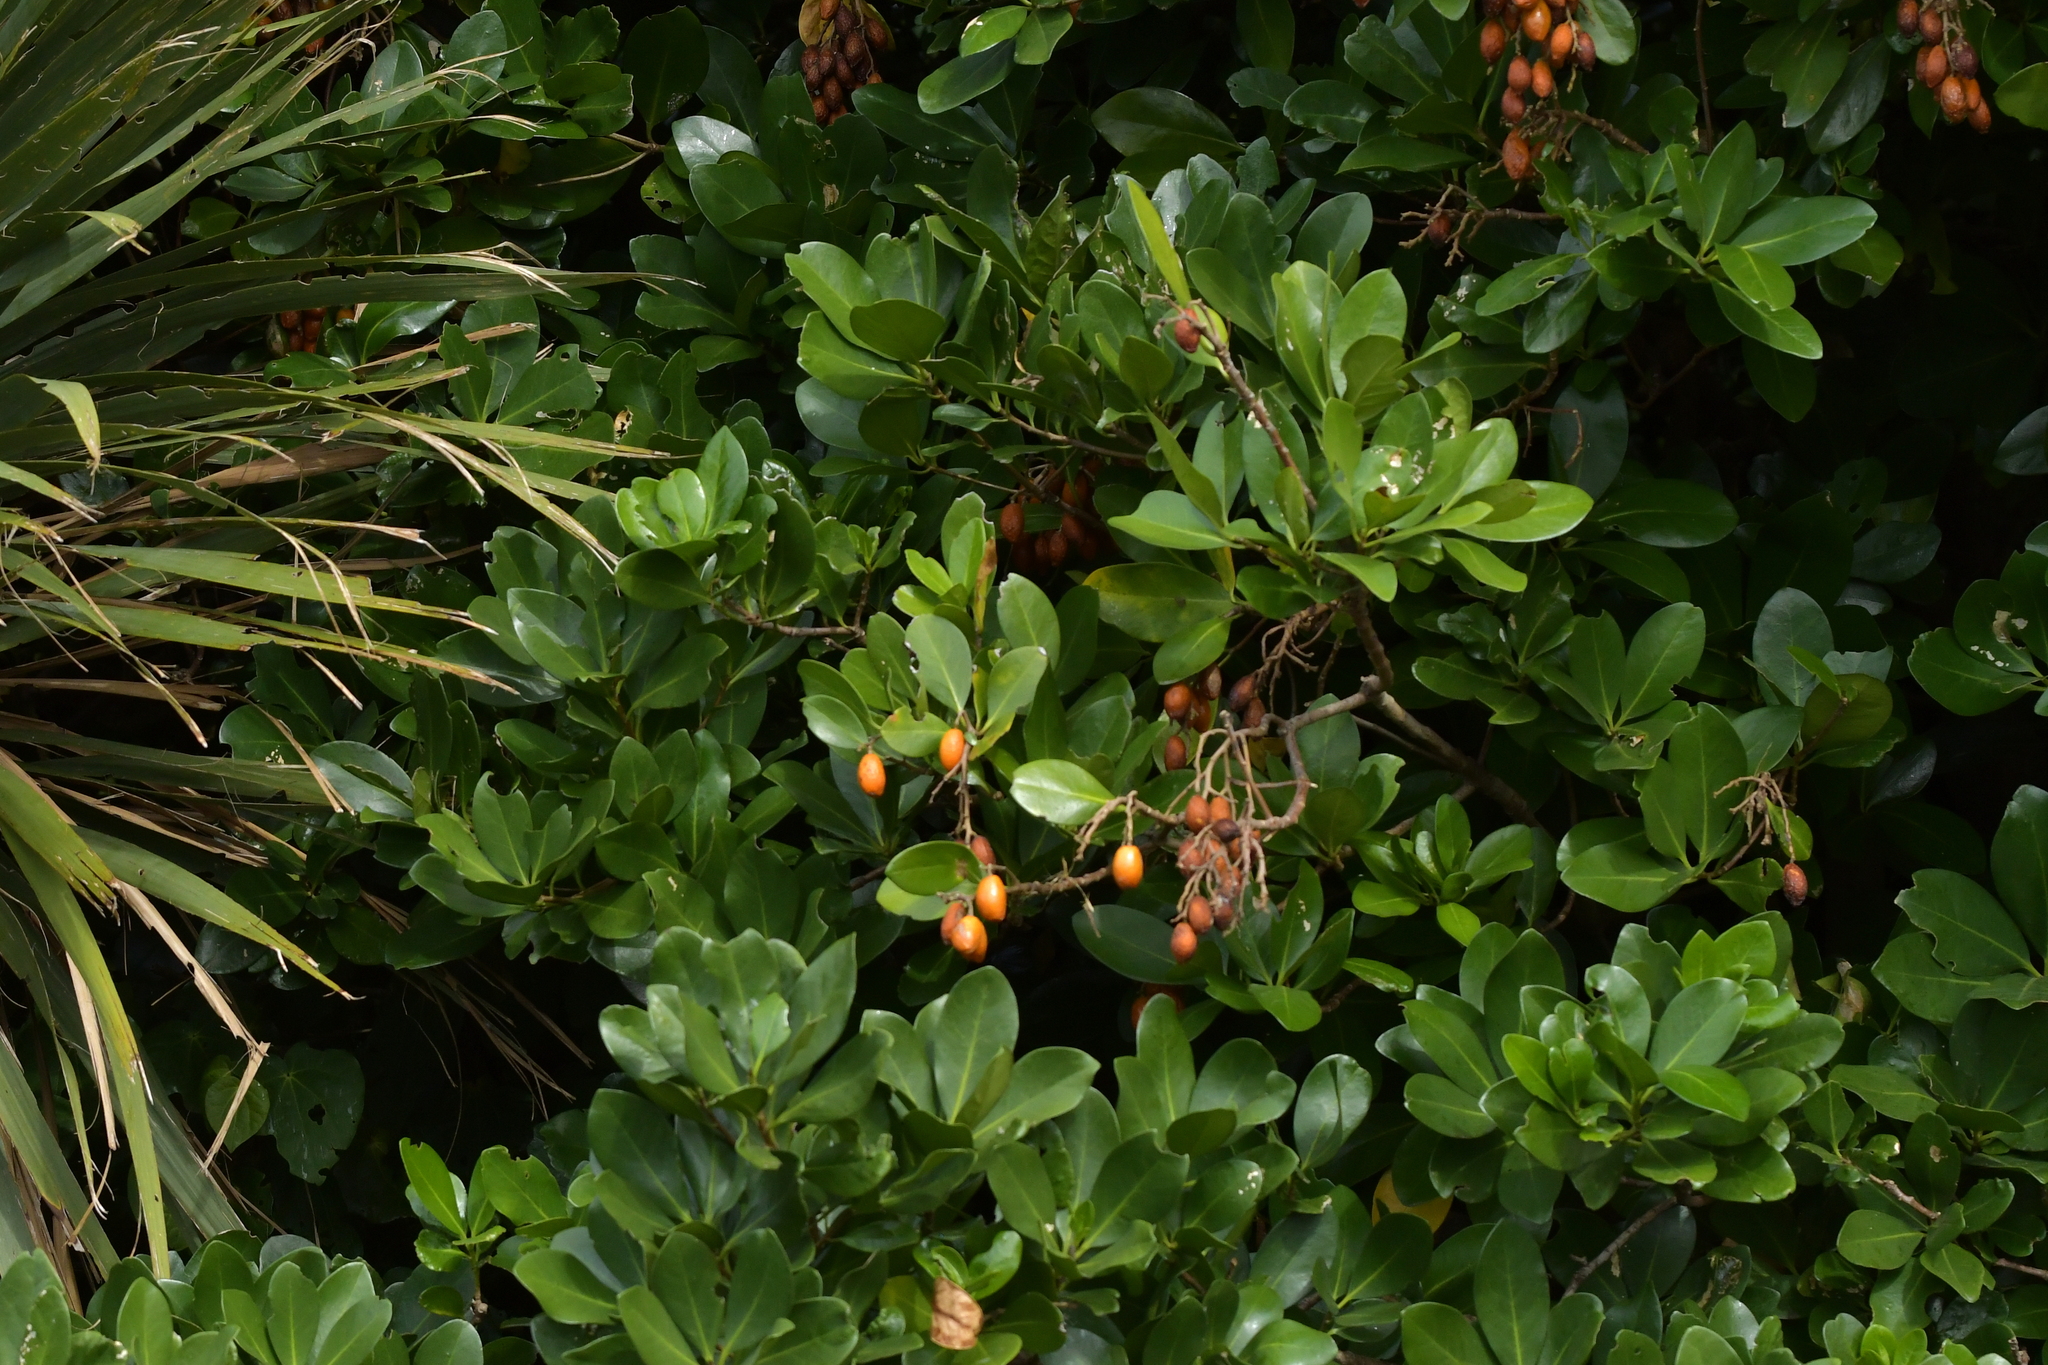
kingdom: Plantae
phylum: Tracheophyta
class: Magnoliopsida
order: Cucurbitales
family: Corynocarpaceae
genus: Corynocarpus
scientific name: Corynocarpus laevigatus
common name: New zealand laurel
